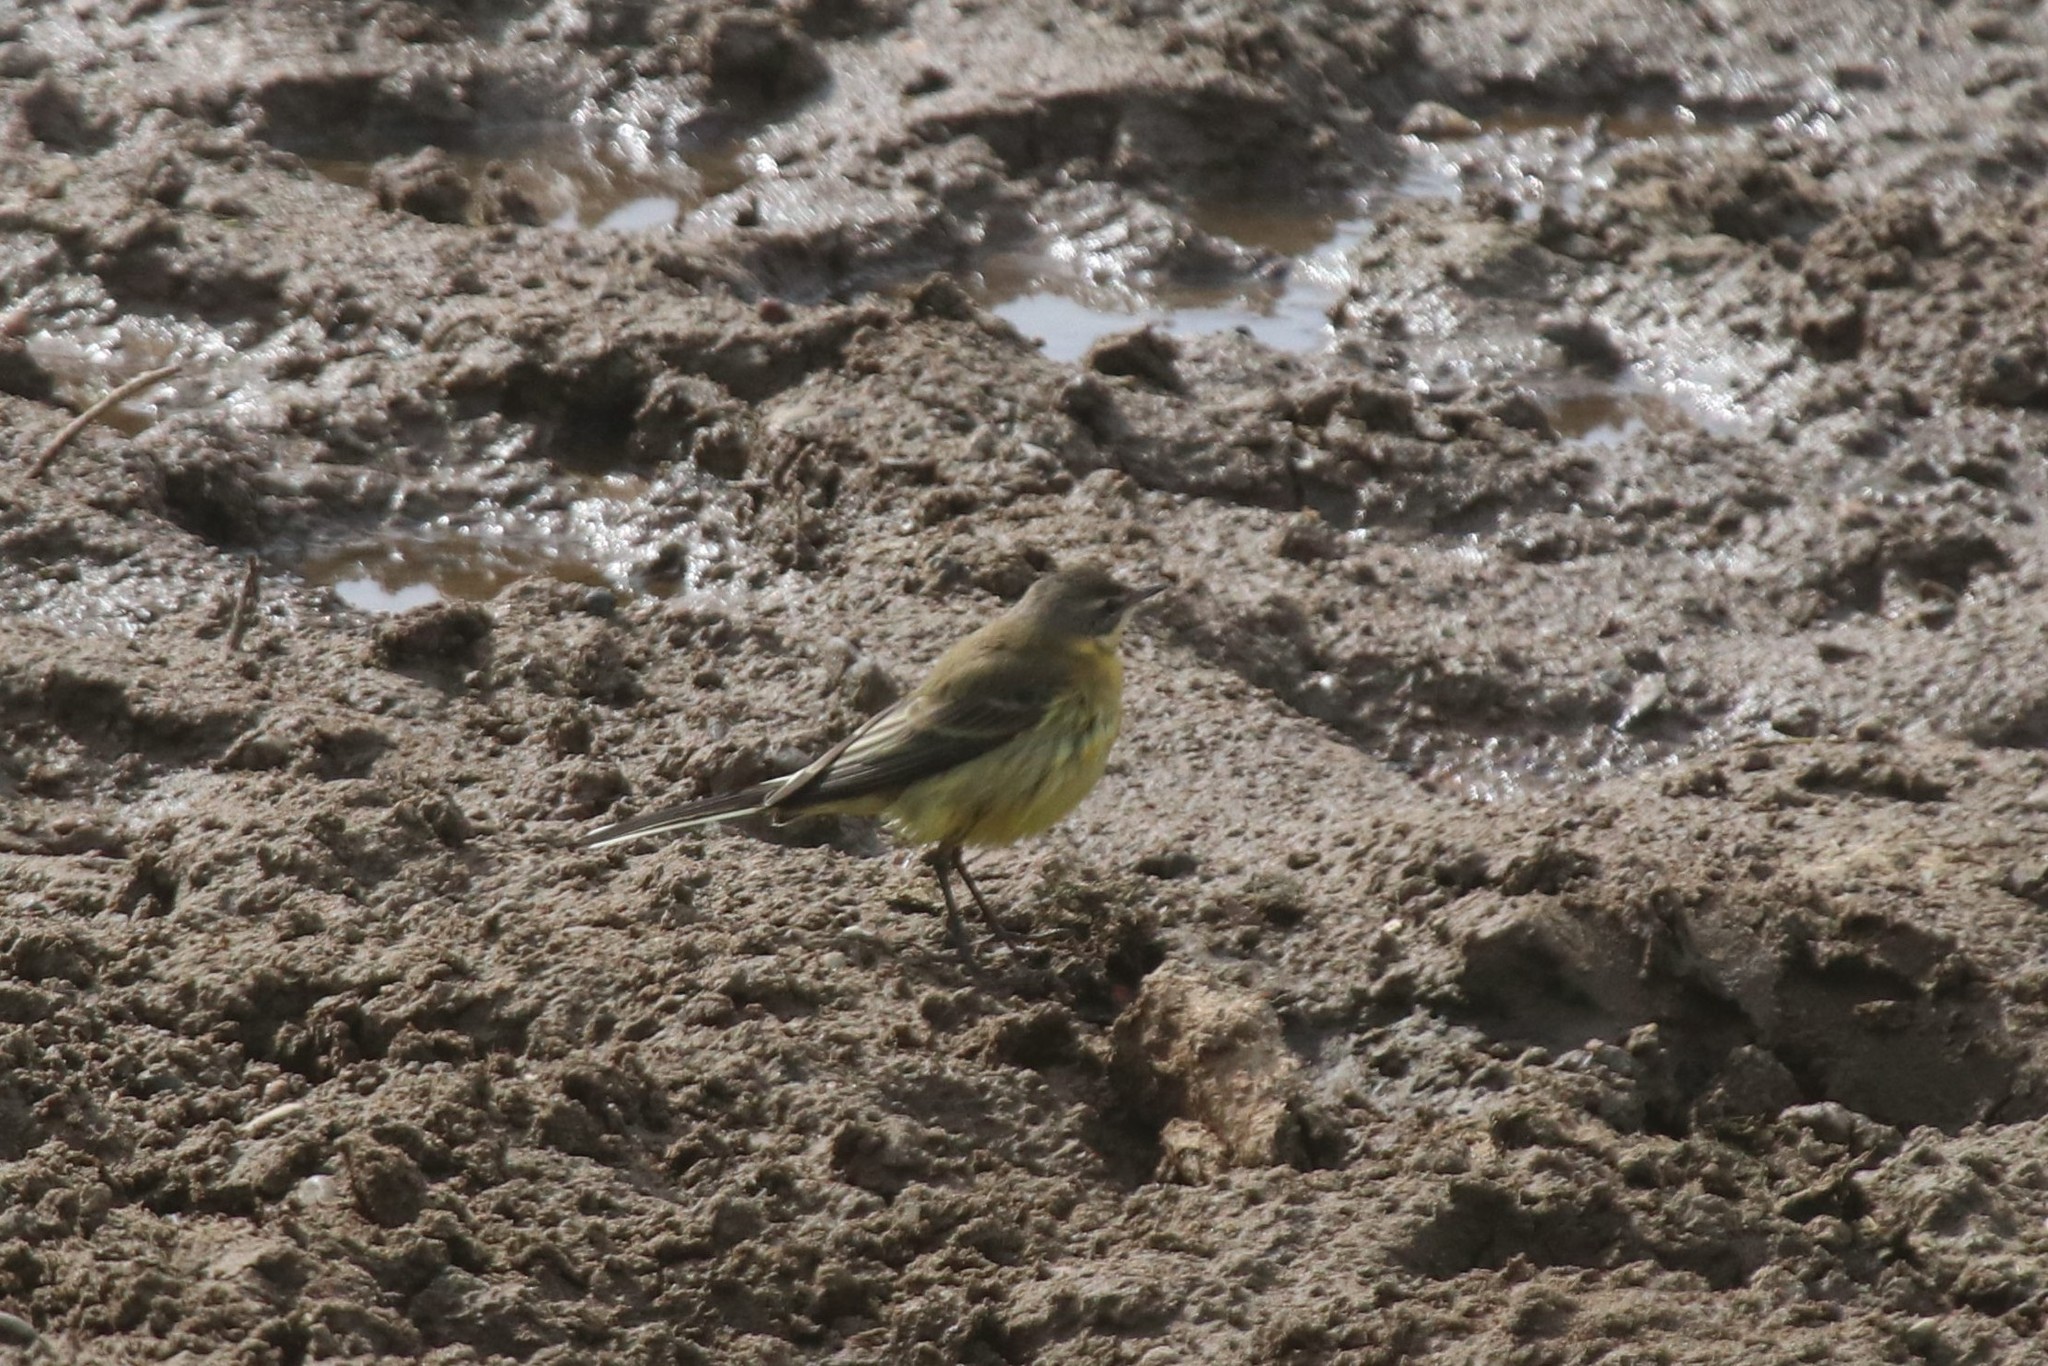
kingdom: Animalia
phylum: Chordata
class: Aves
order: Passeriformes
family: Motacillidae
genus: Motacilla
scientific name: Motacilla flava
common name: Western yellow wagtail
